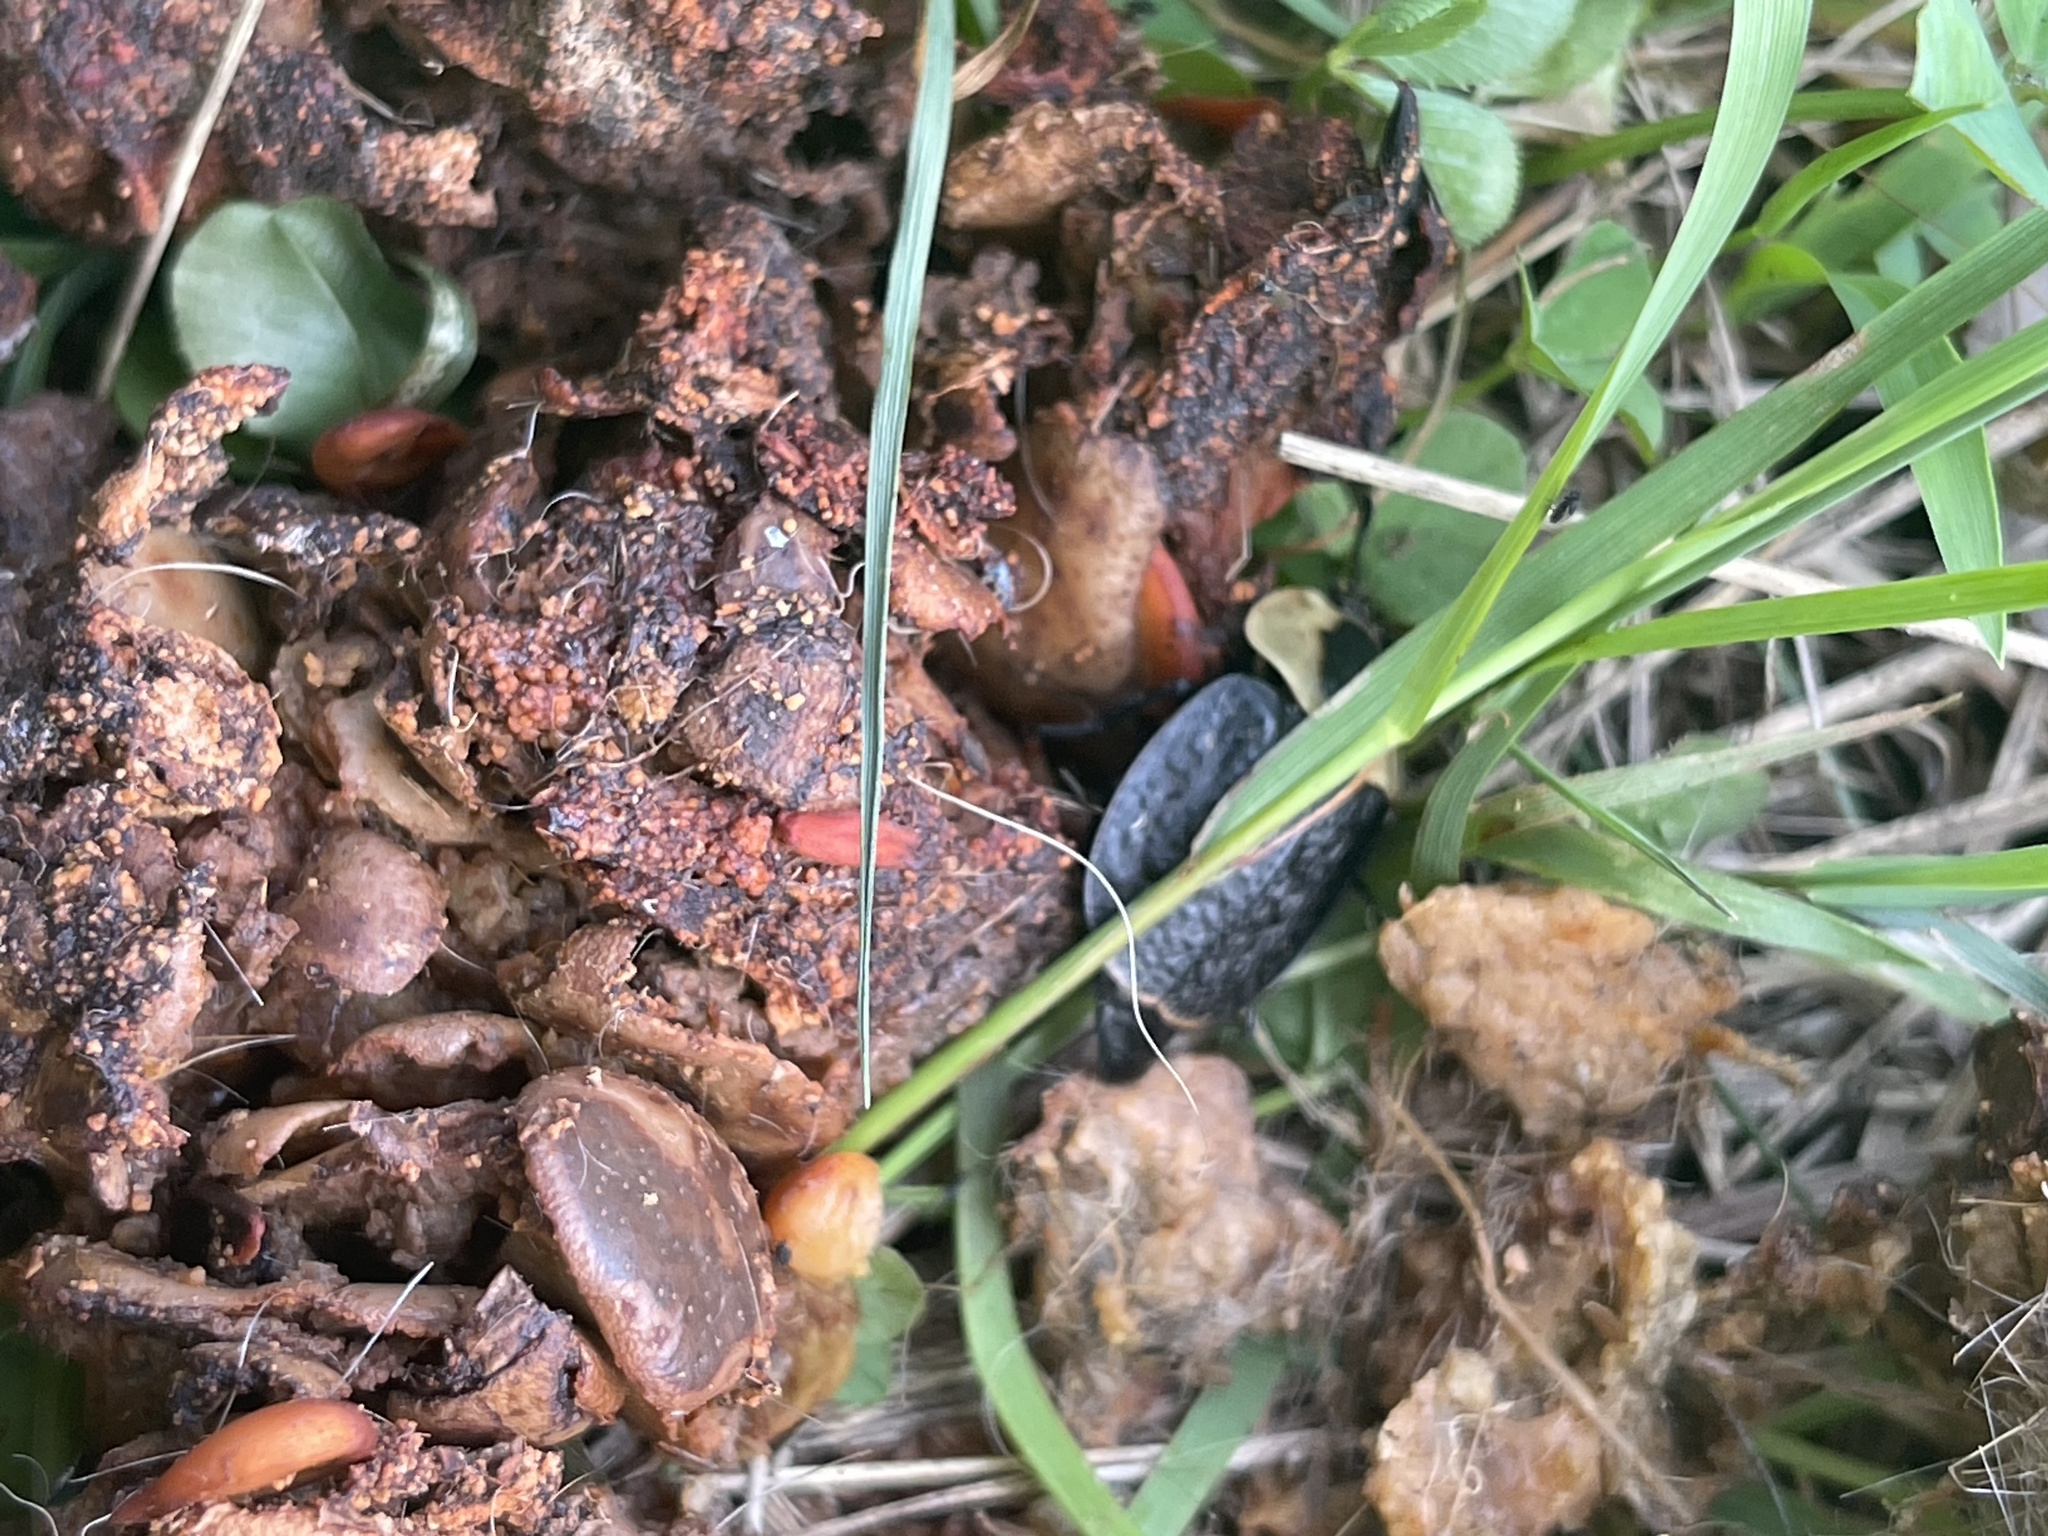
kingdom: Animalia
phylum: Arthropoda
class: Insecta
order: Coleoptera
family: Staphylinidae
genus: Necrophila
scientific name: Necrophila americana
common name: American carrion beetle
